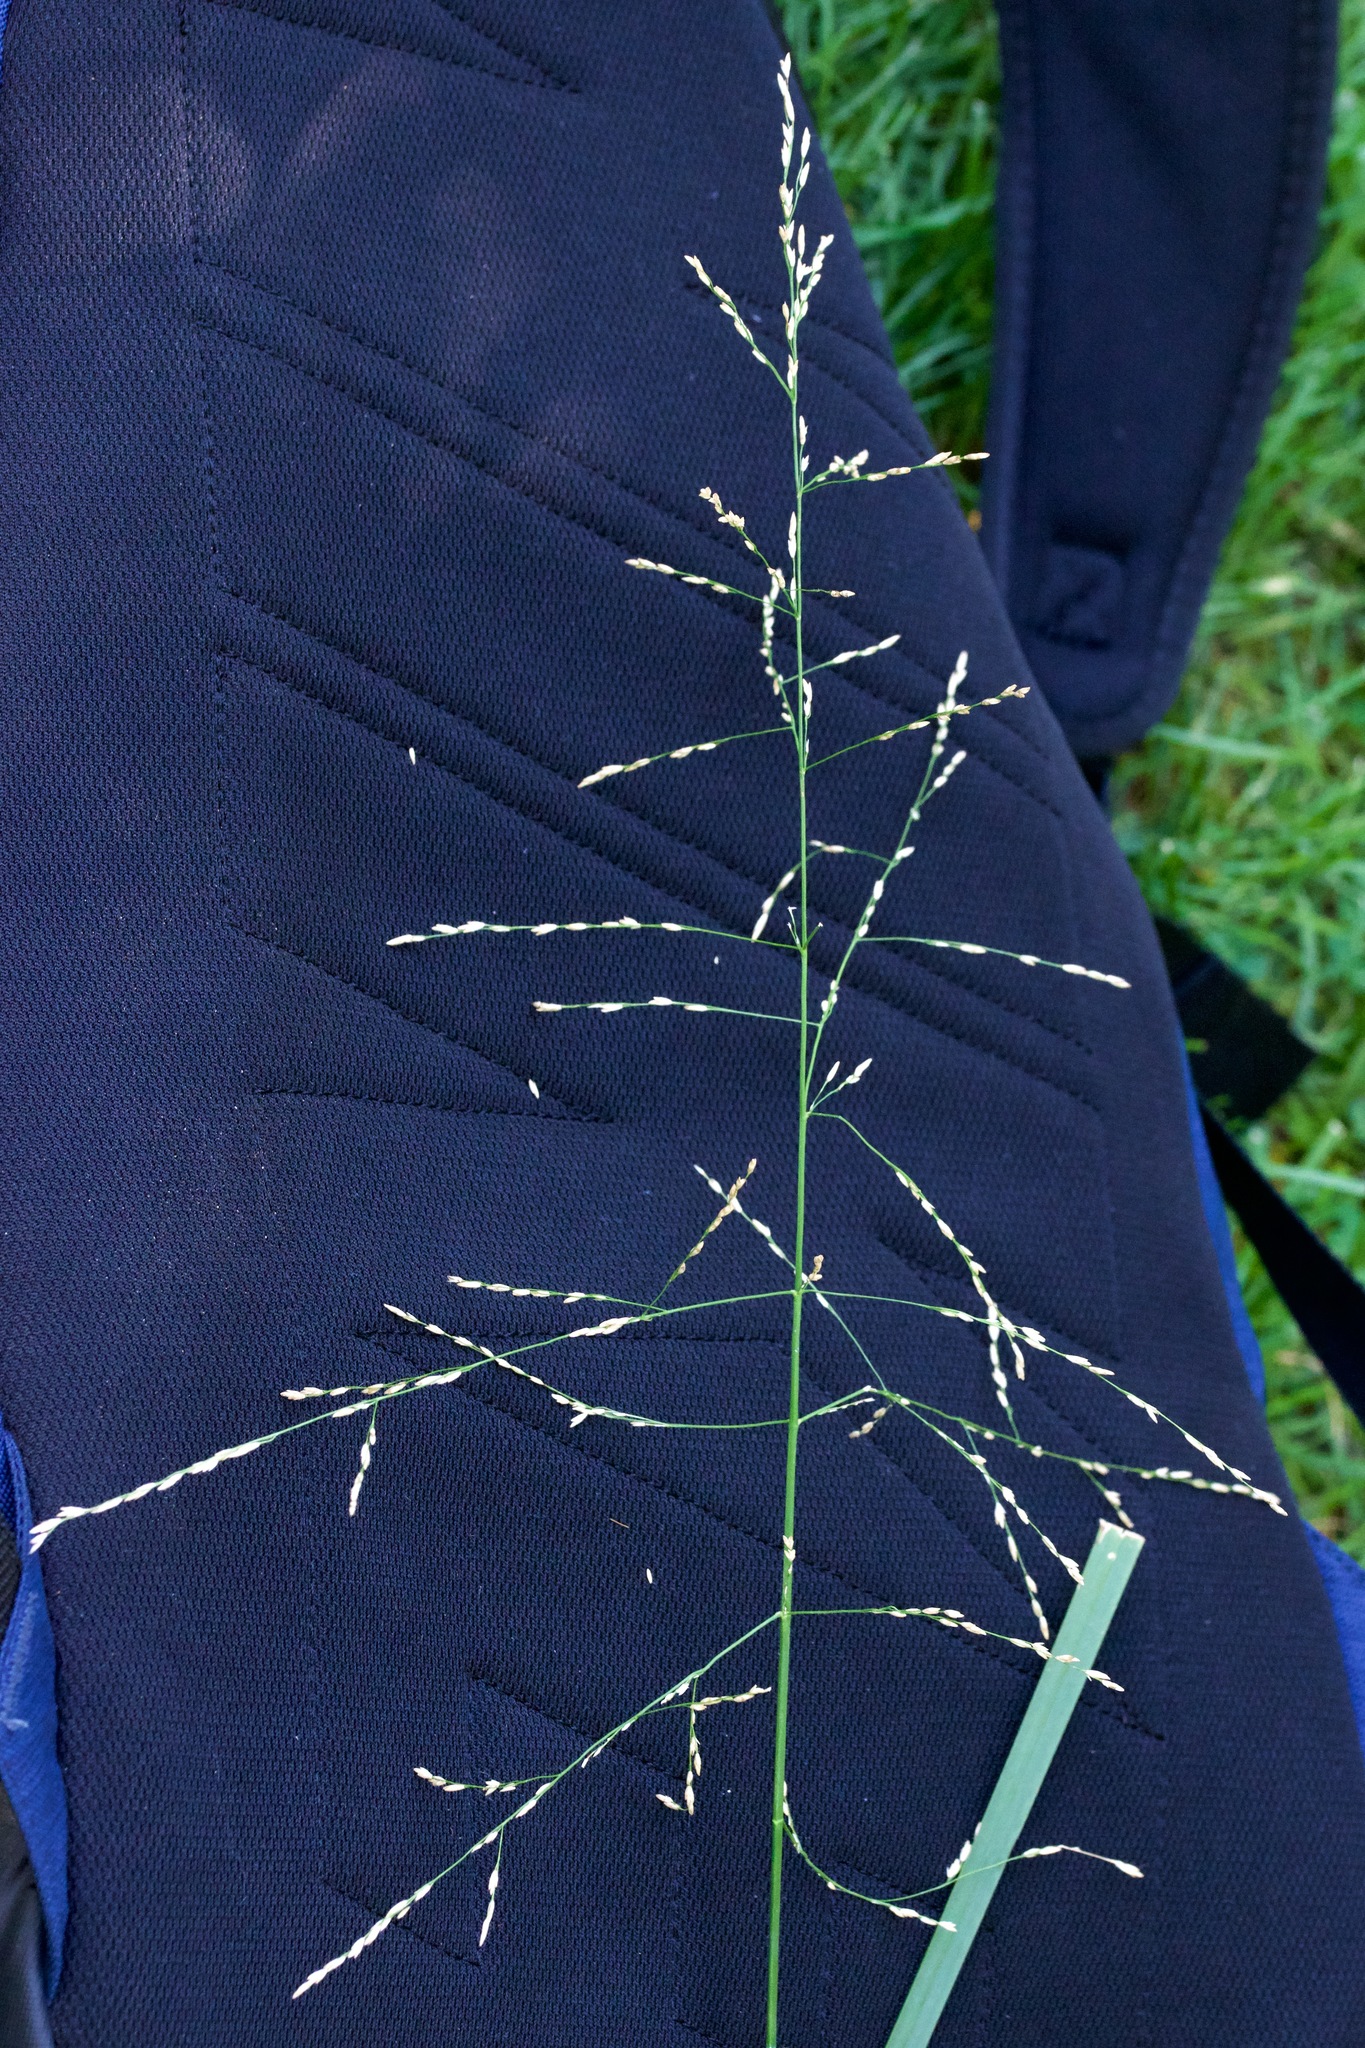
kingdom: Plantae
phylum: Tracheophyta
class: Liliopsida
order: Poales
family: Poaceae
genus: Glyceria
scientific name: Glyceria maxima
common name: Reed mannagrass
